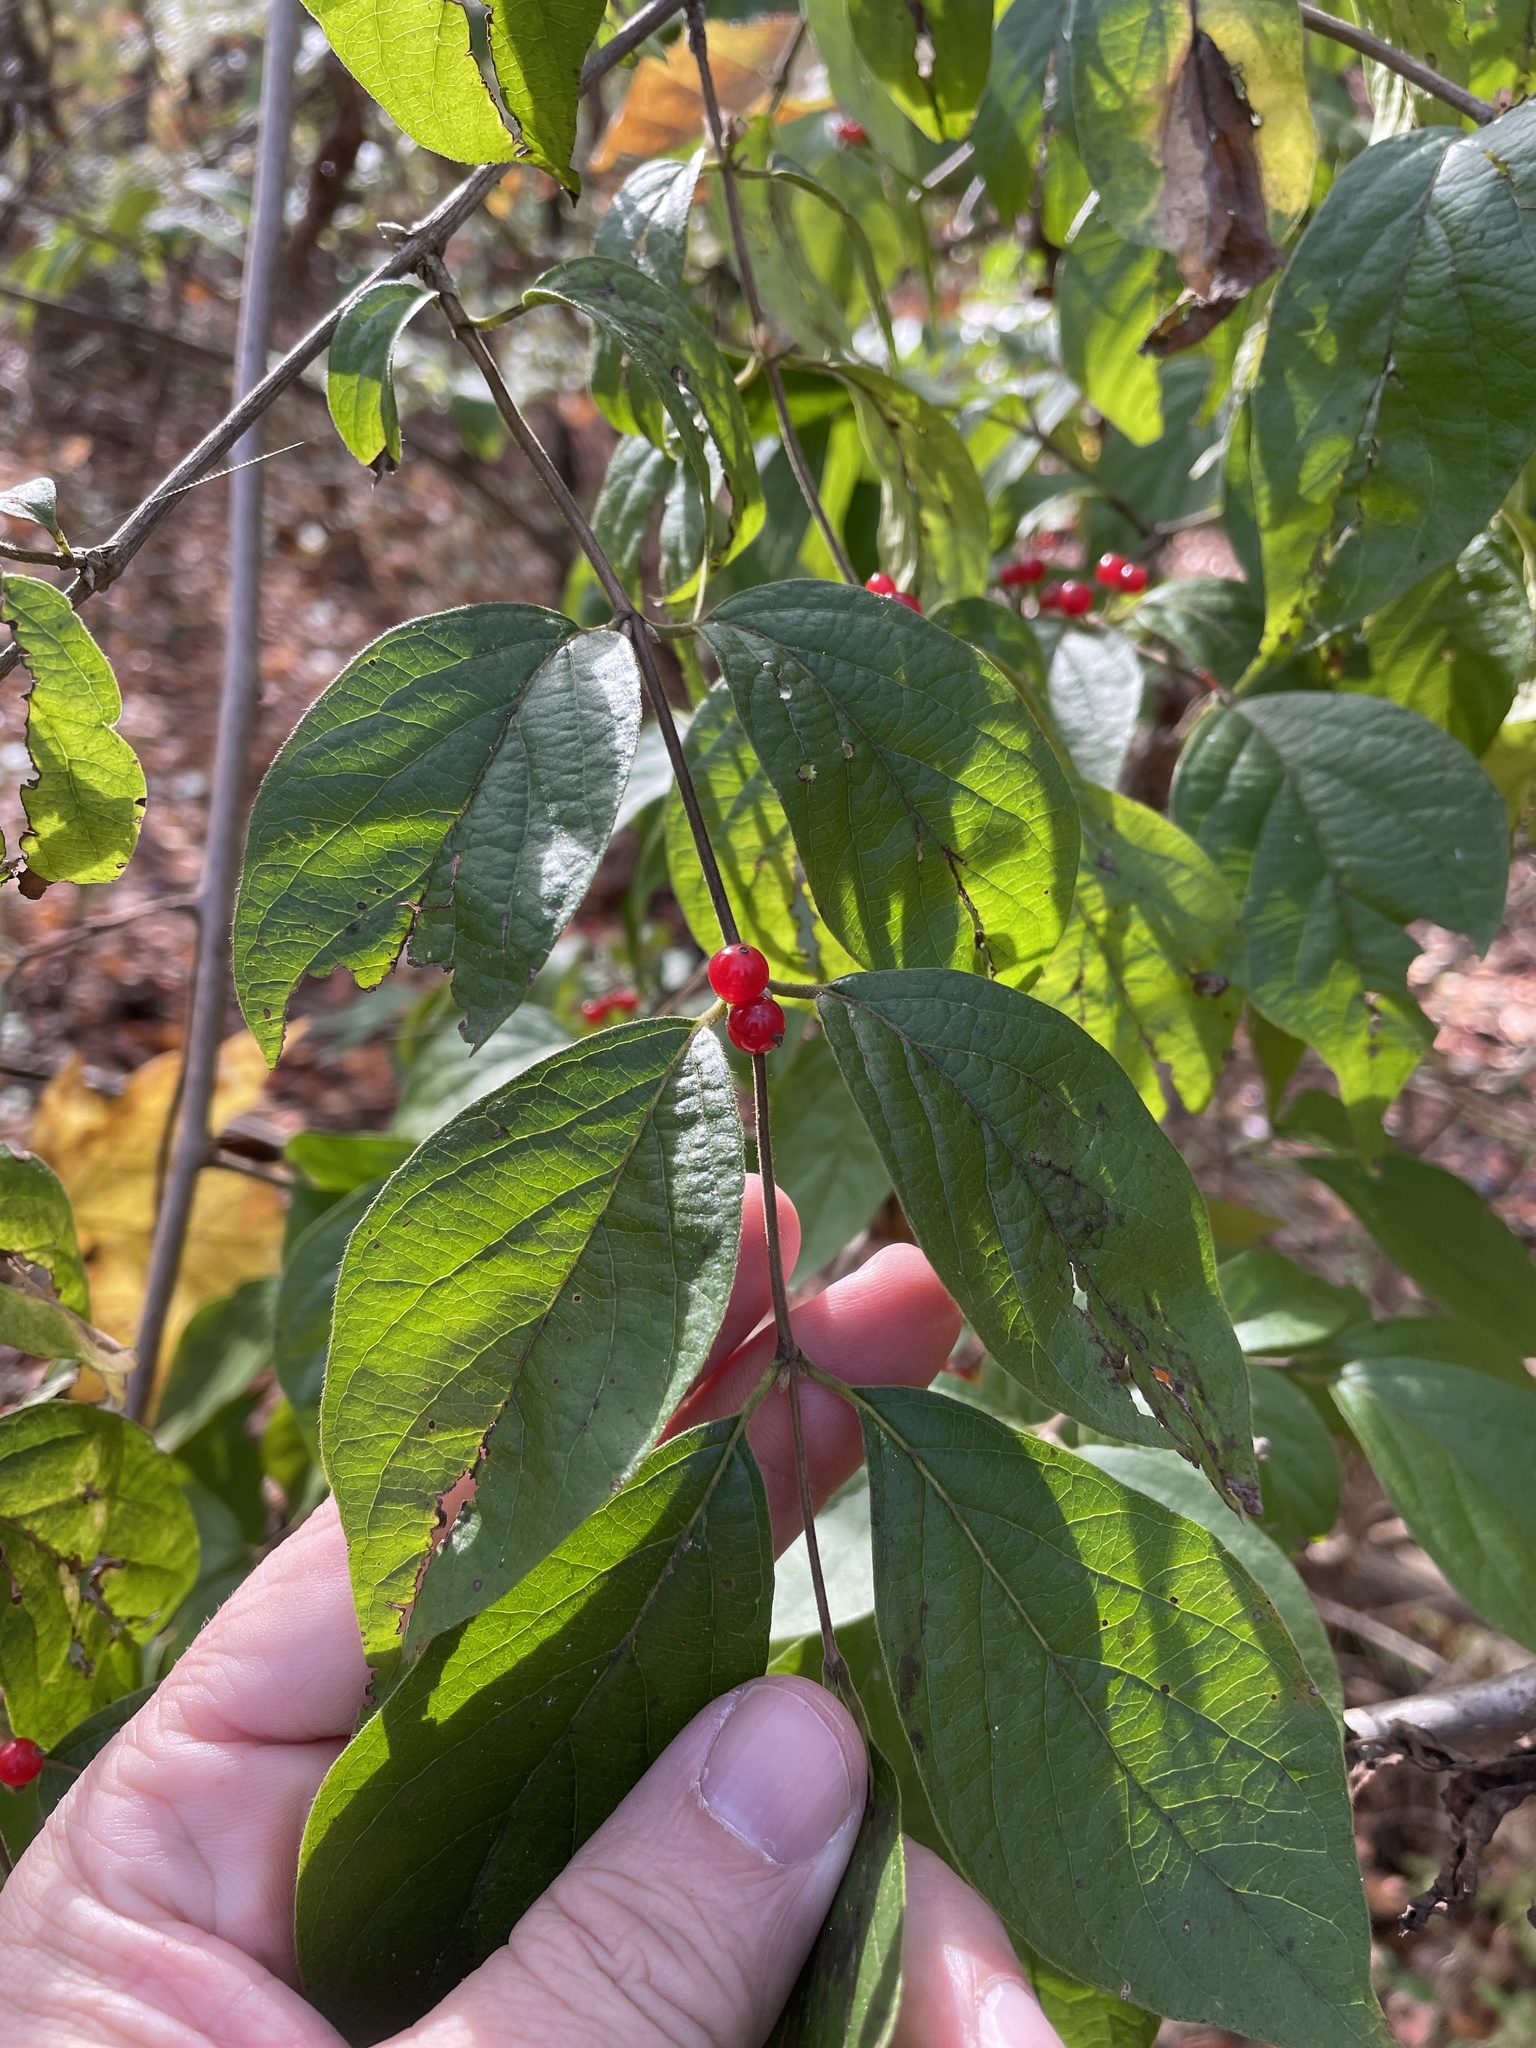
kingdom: Plantae
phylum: Tracheophyta
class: Magnoliopsida
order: Dipsacales
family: Caprifoliaceae
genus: Lonicera
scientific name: Lonicera maackii
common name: Amur honeysuckle
